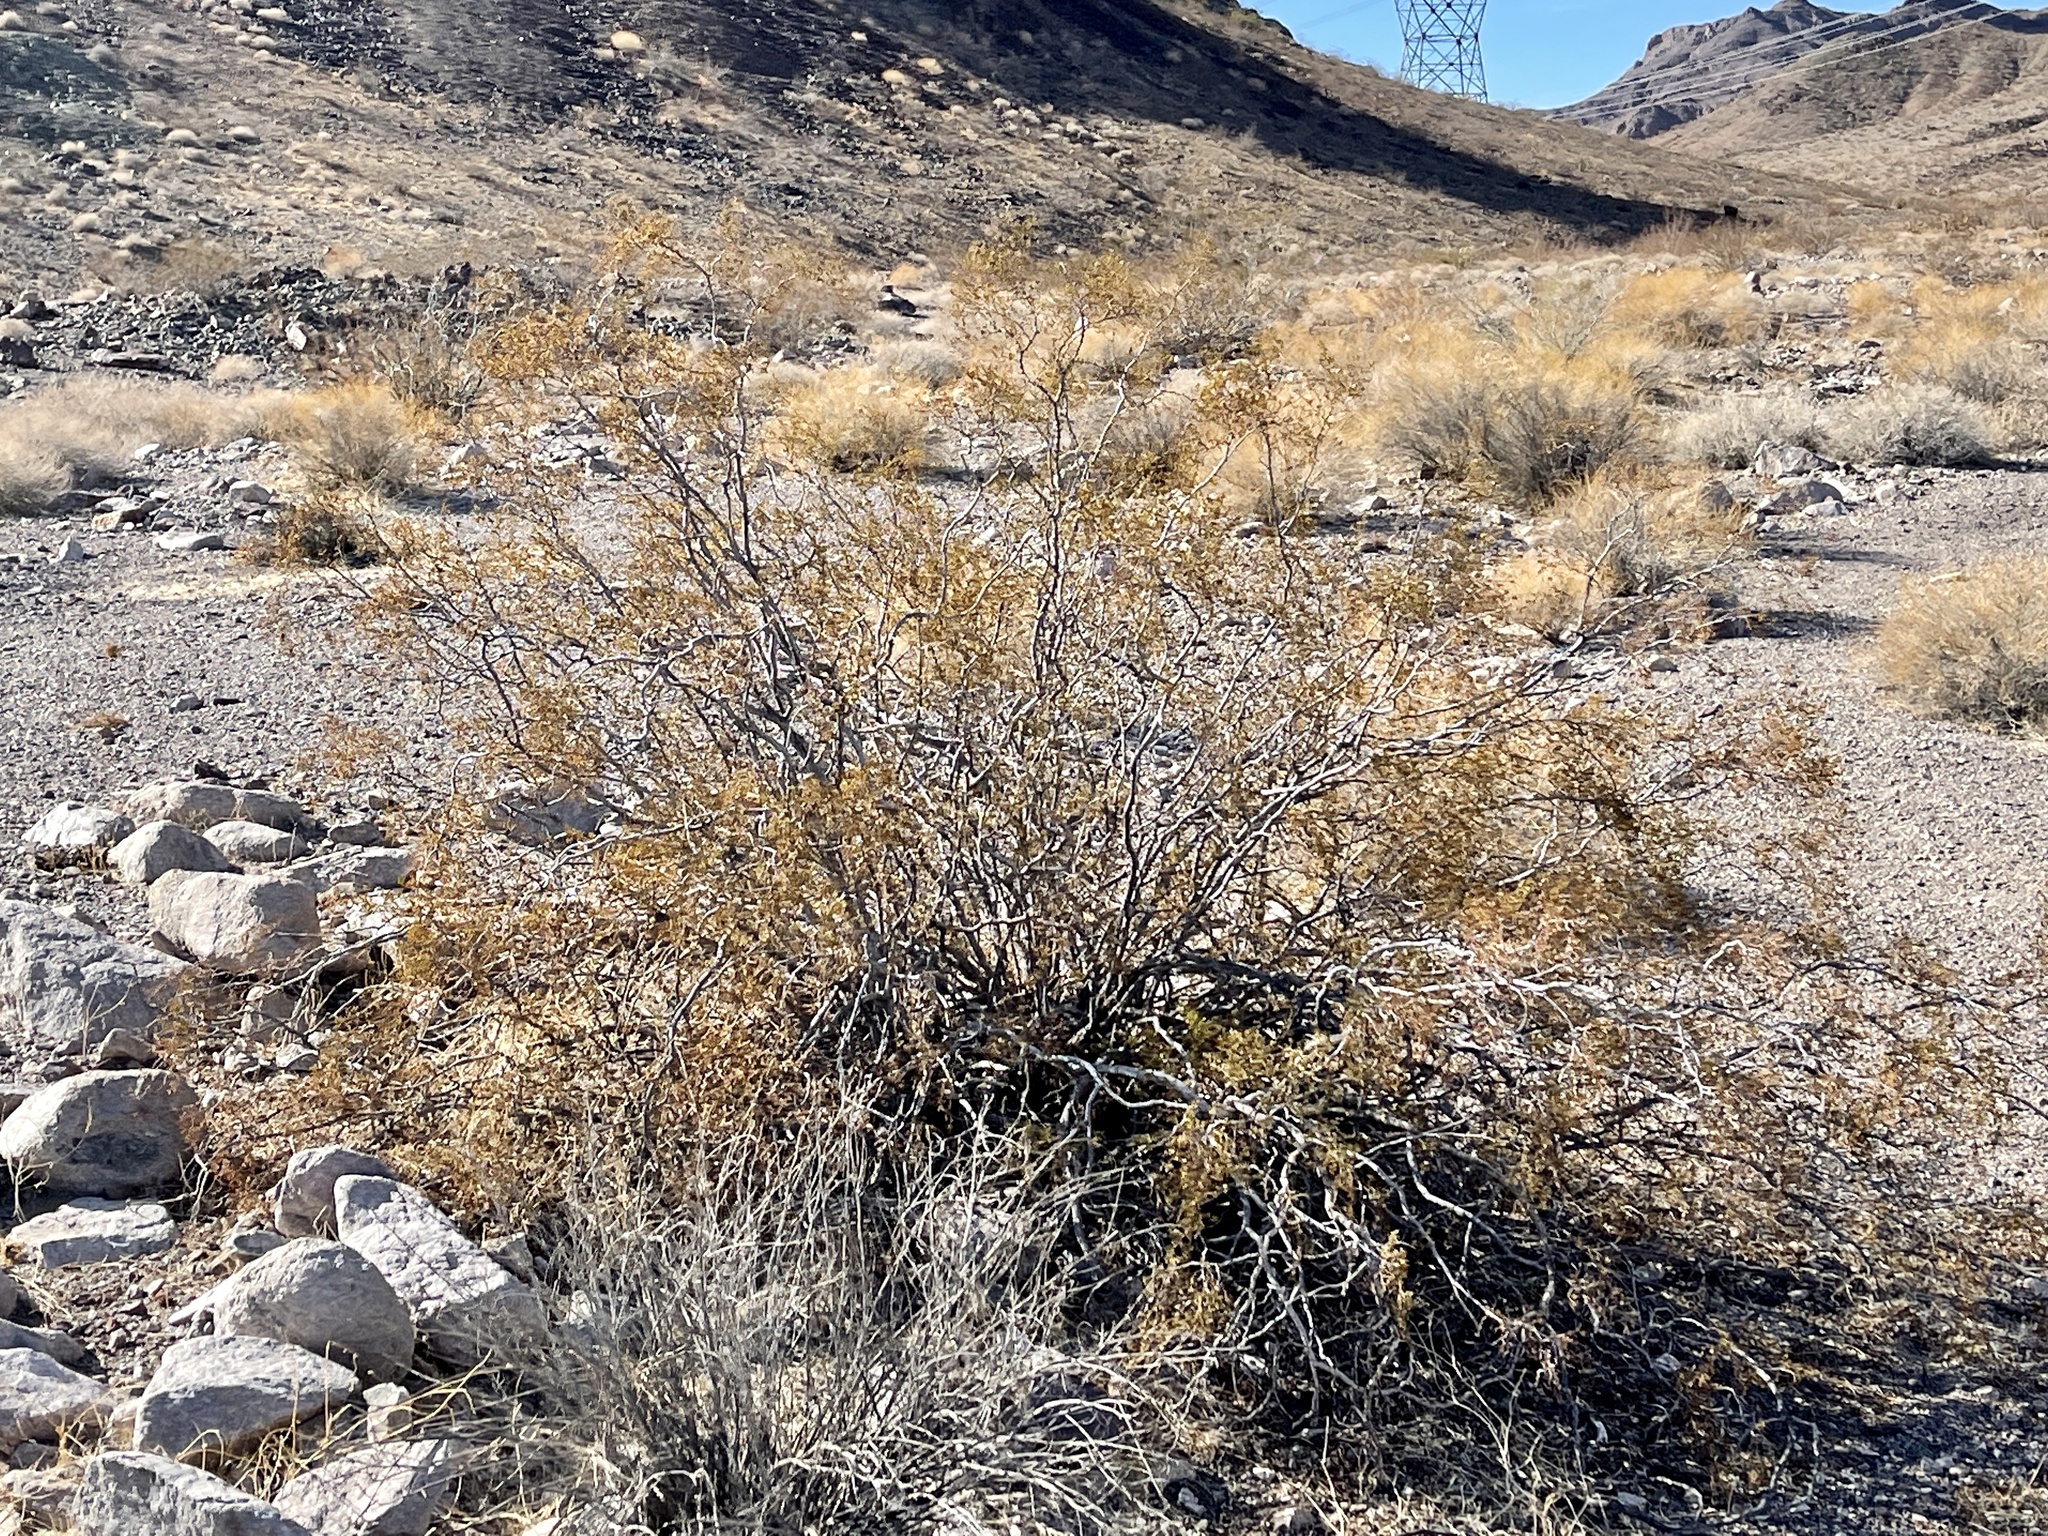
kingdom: Plantae
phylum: Tracheophyta
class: Magnoliopsida
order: Zygophyllales
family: Zygophyllaceae
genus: Larrea
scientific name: Larrea tridentata
